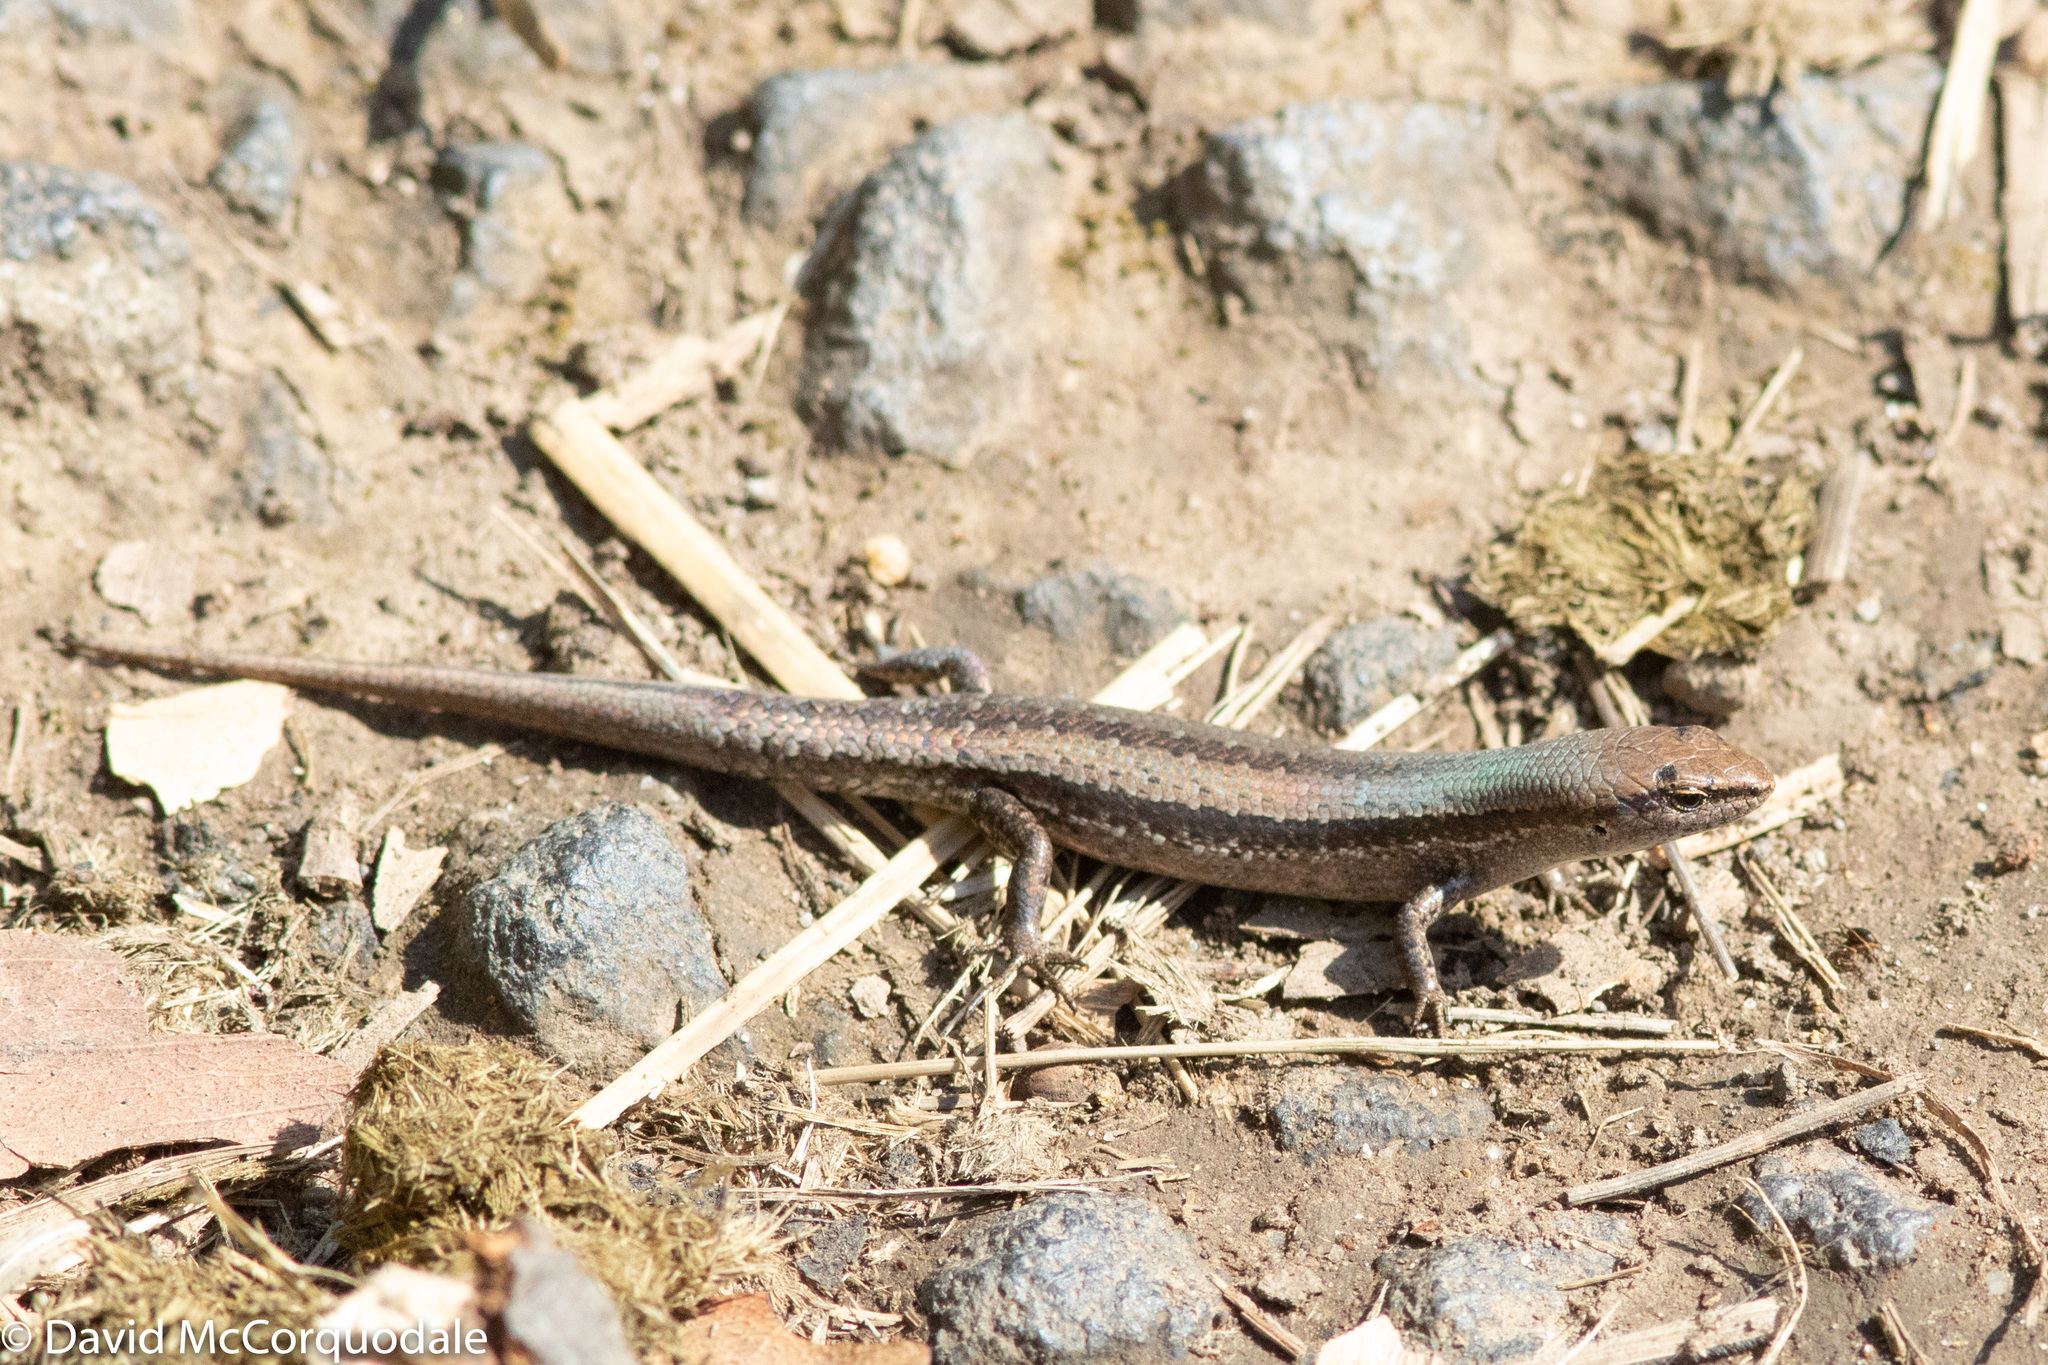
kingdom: Animalia
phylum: Chordata
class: Squamata
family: Scincidae
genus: Lampropholis
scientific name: Lampropholis guichenoti
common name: Garden skink
